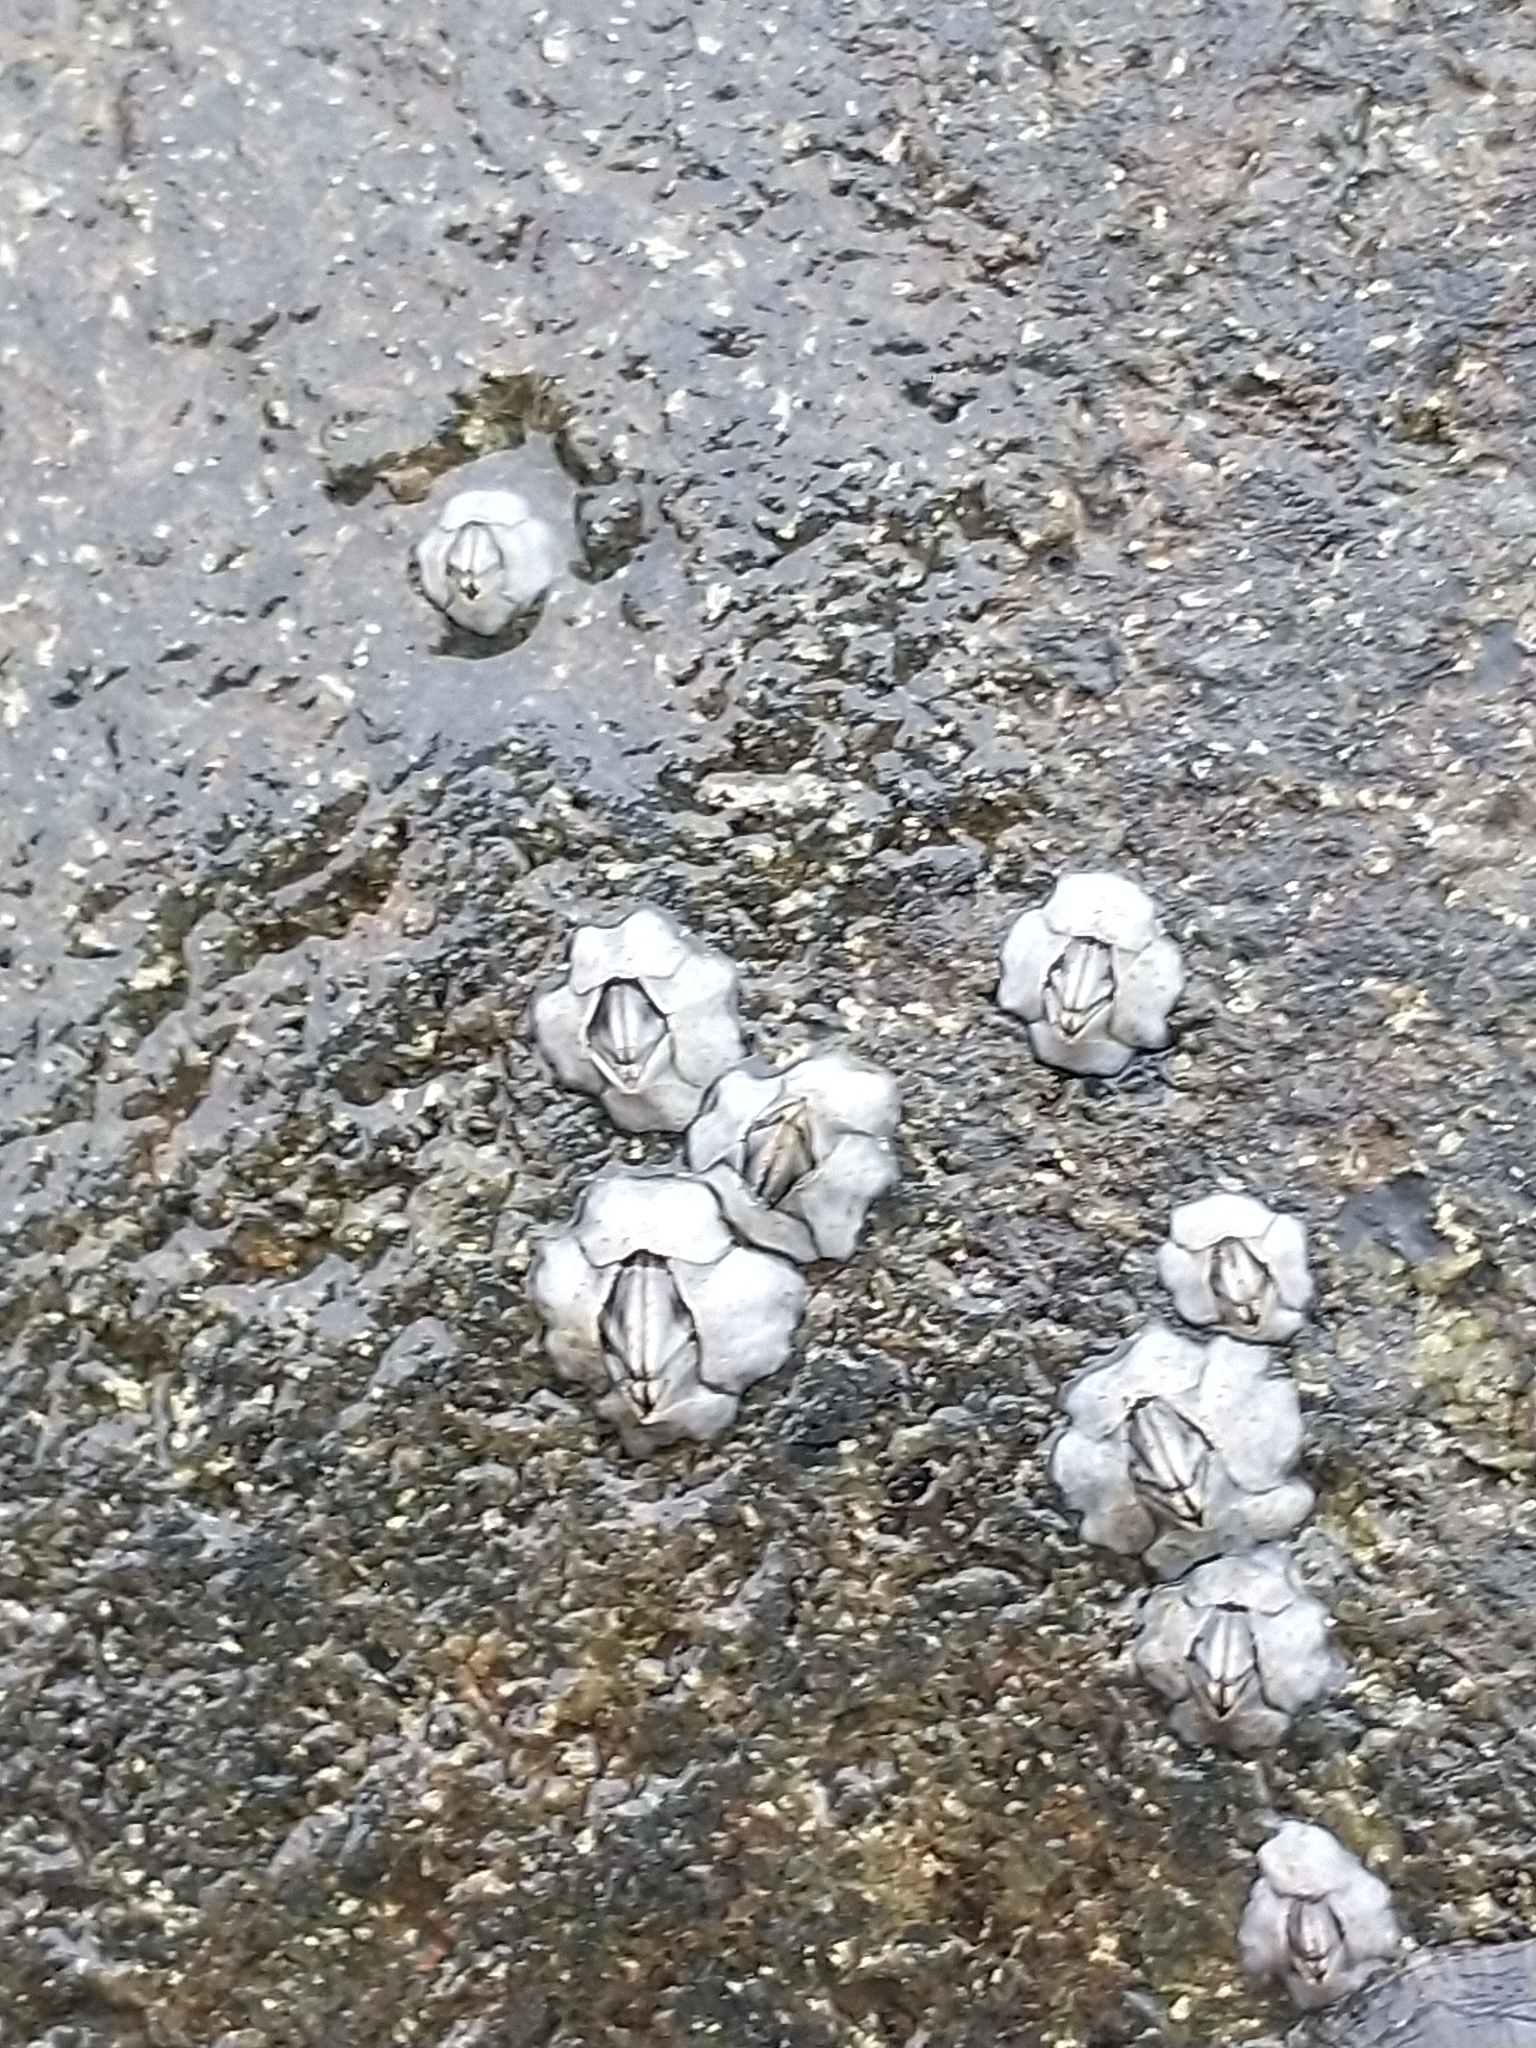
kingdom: Animalia
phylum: Arthropoda
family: Elminiidae
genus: Austrominius
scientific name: Austrominius modestus
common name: Australasian barnacle
